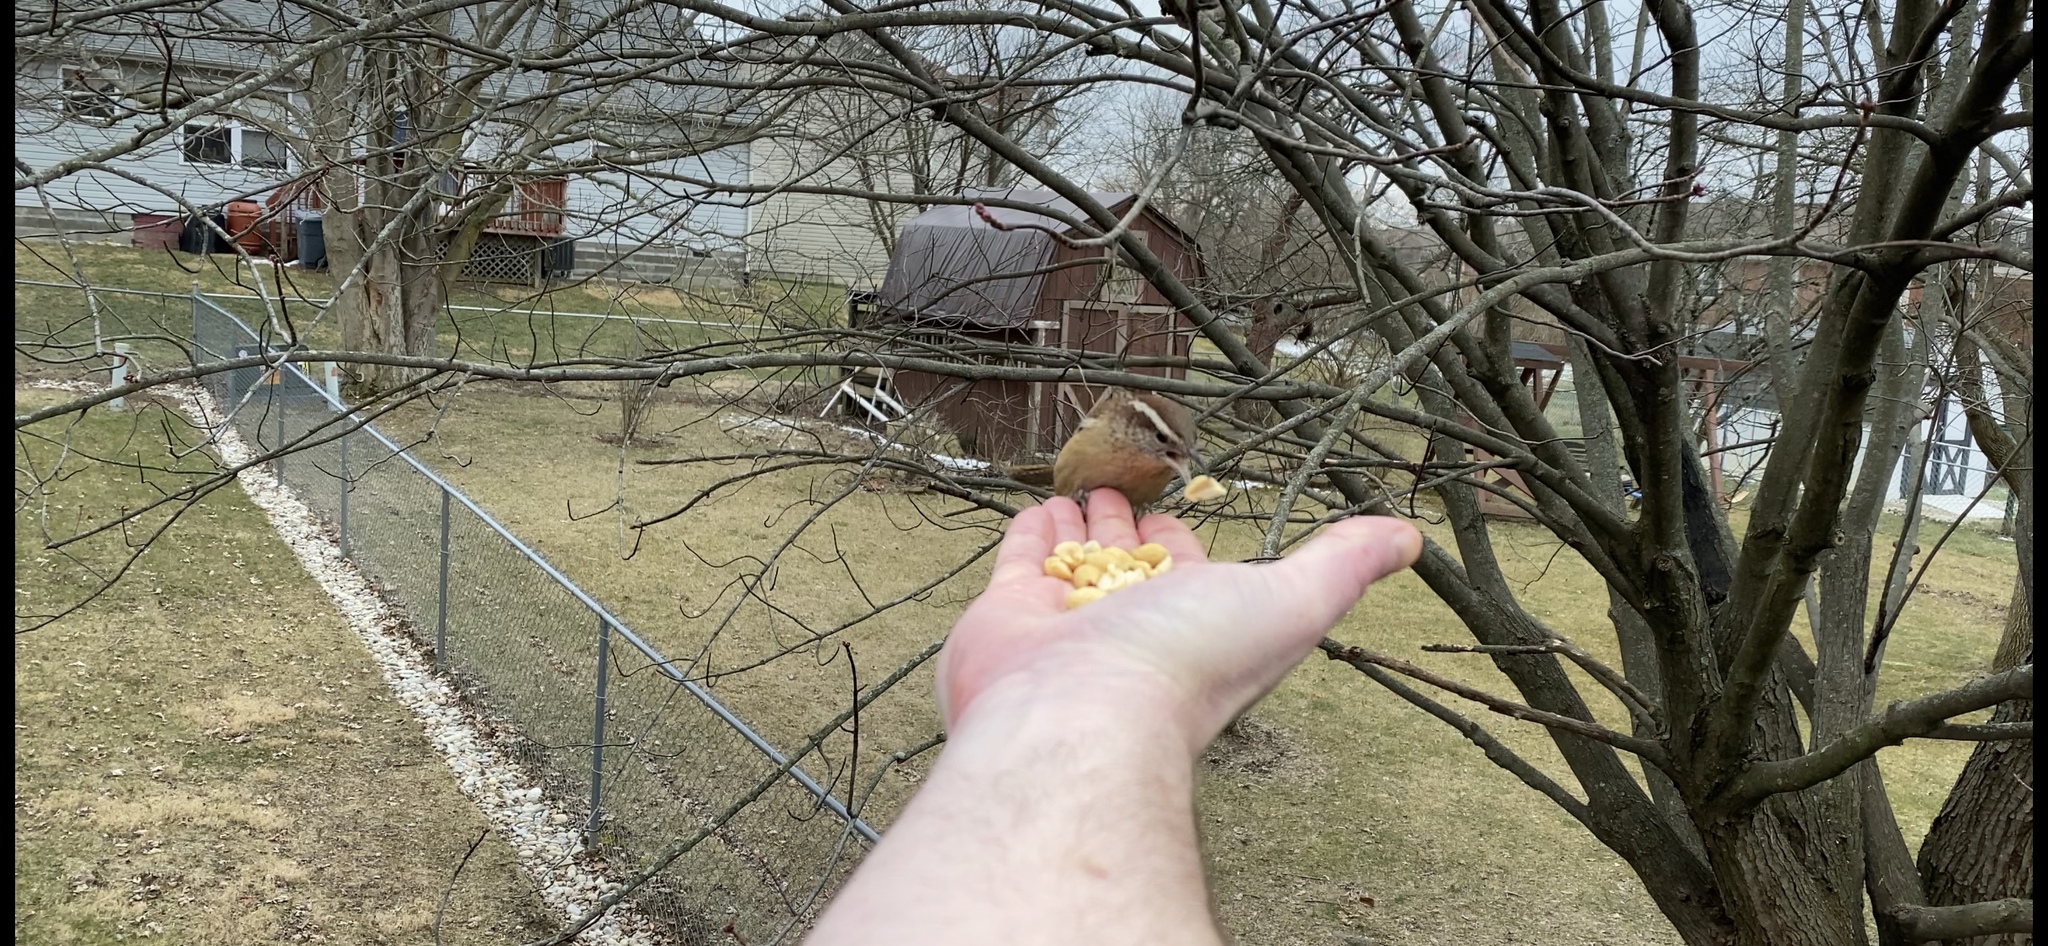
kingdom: Animalia
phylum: Chordata
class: Aves
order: Passeriformes
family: Troglodytidae
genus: Thryothorus
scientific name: Thryothorus ludovicianus
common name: Carolina wren
